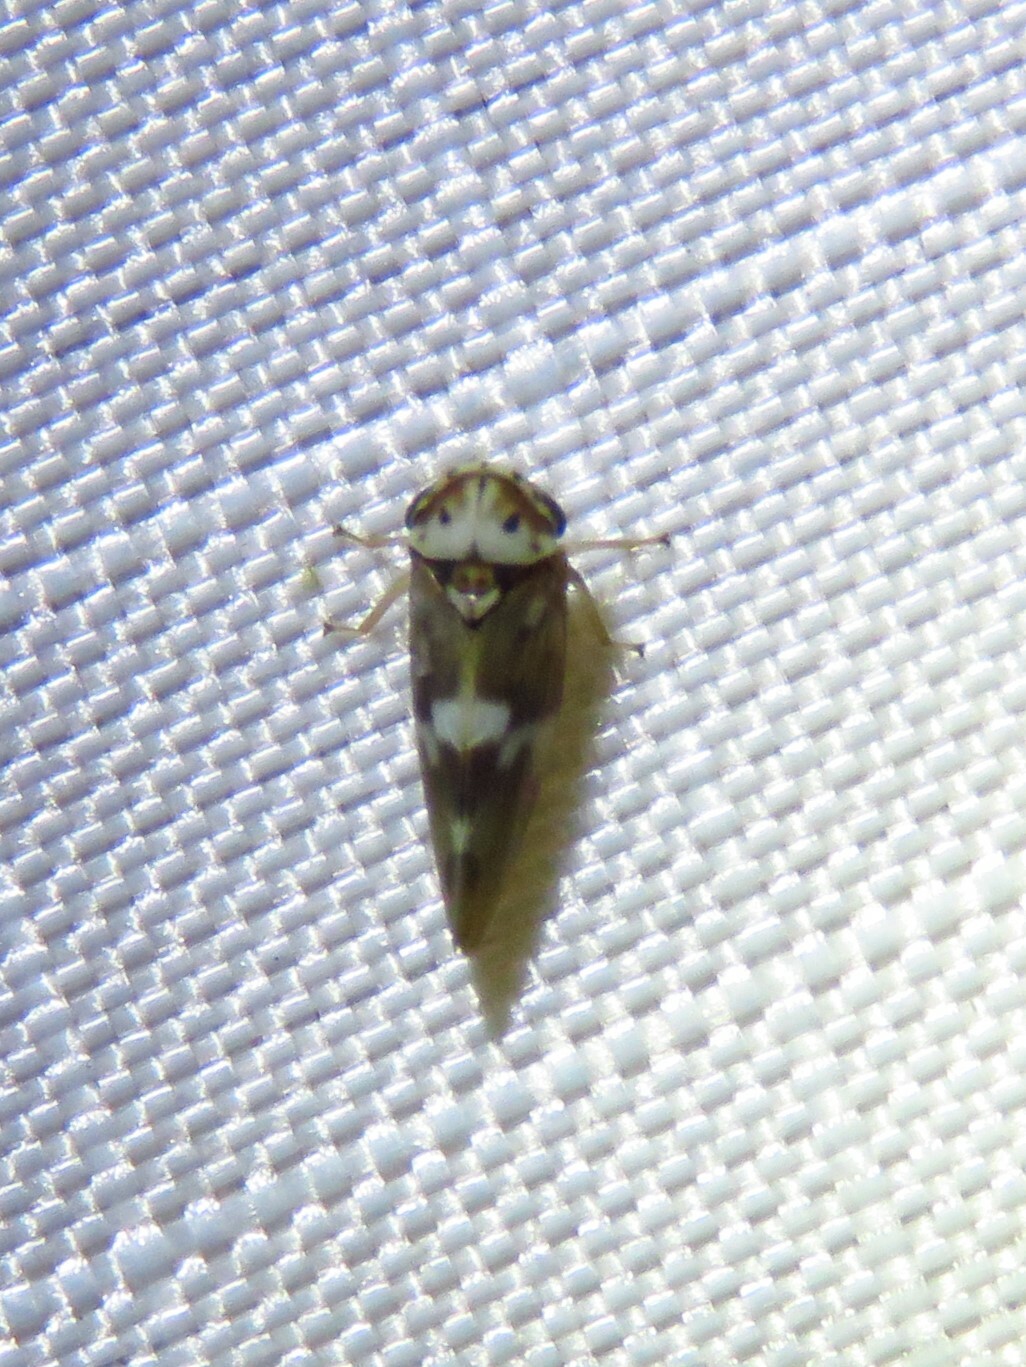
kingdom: Animalia
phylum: Arthropoda
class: Insecta
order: Hemiptera
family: Cicadellidae
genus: Agalliopsis
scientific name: Agalliopsis cervina
